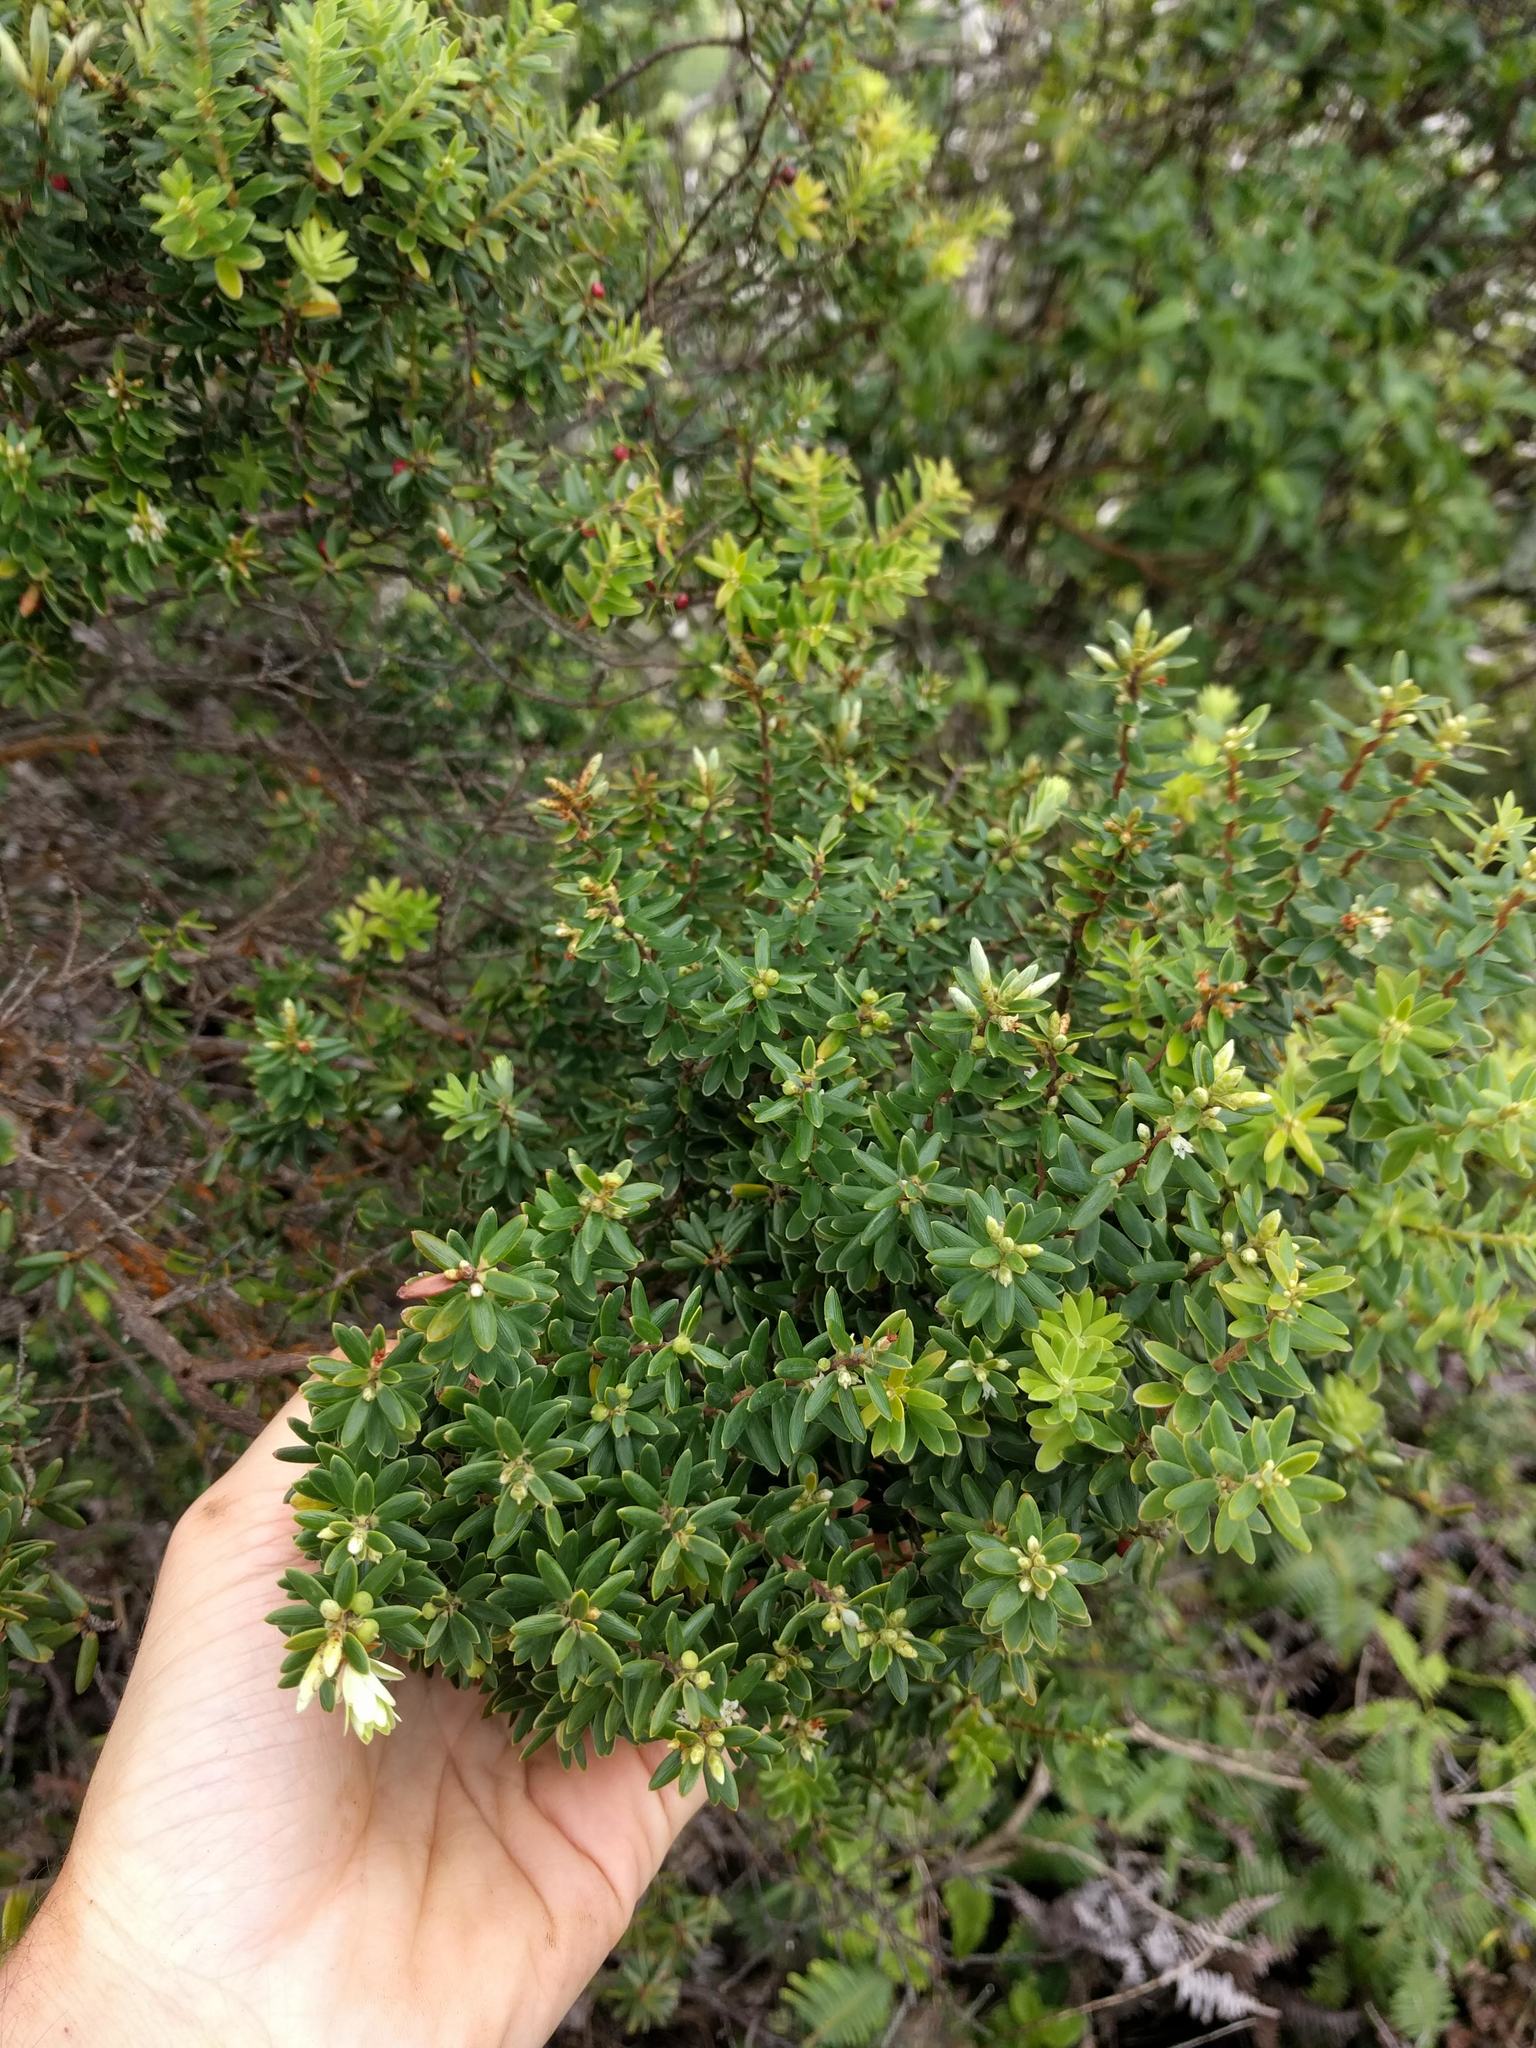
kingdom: Plantae
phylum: Tracheophyta
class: Magnoliopsida
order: Ericales
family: Ericaceae
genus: Leptecophylla
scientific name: Leptecophylla tameiameiae
